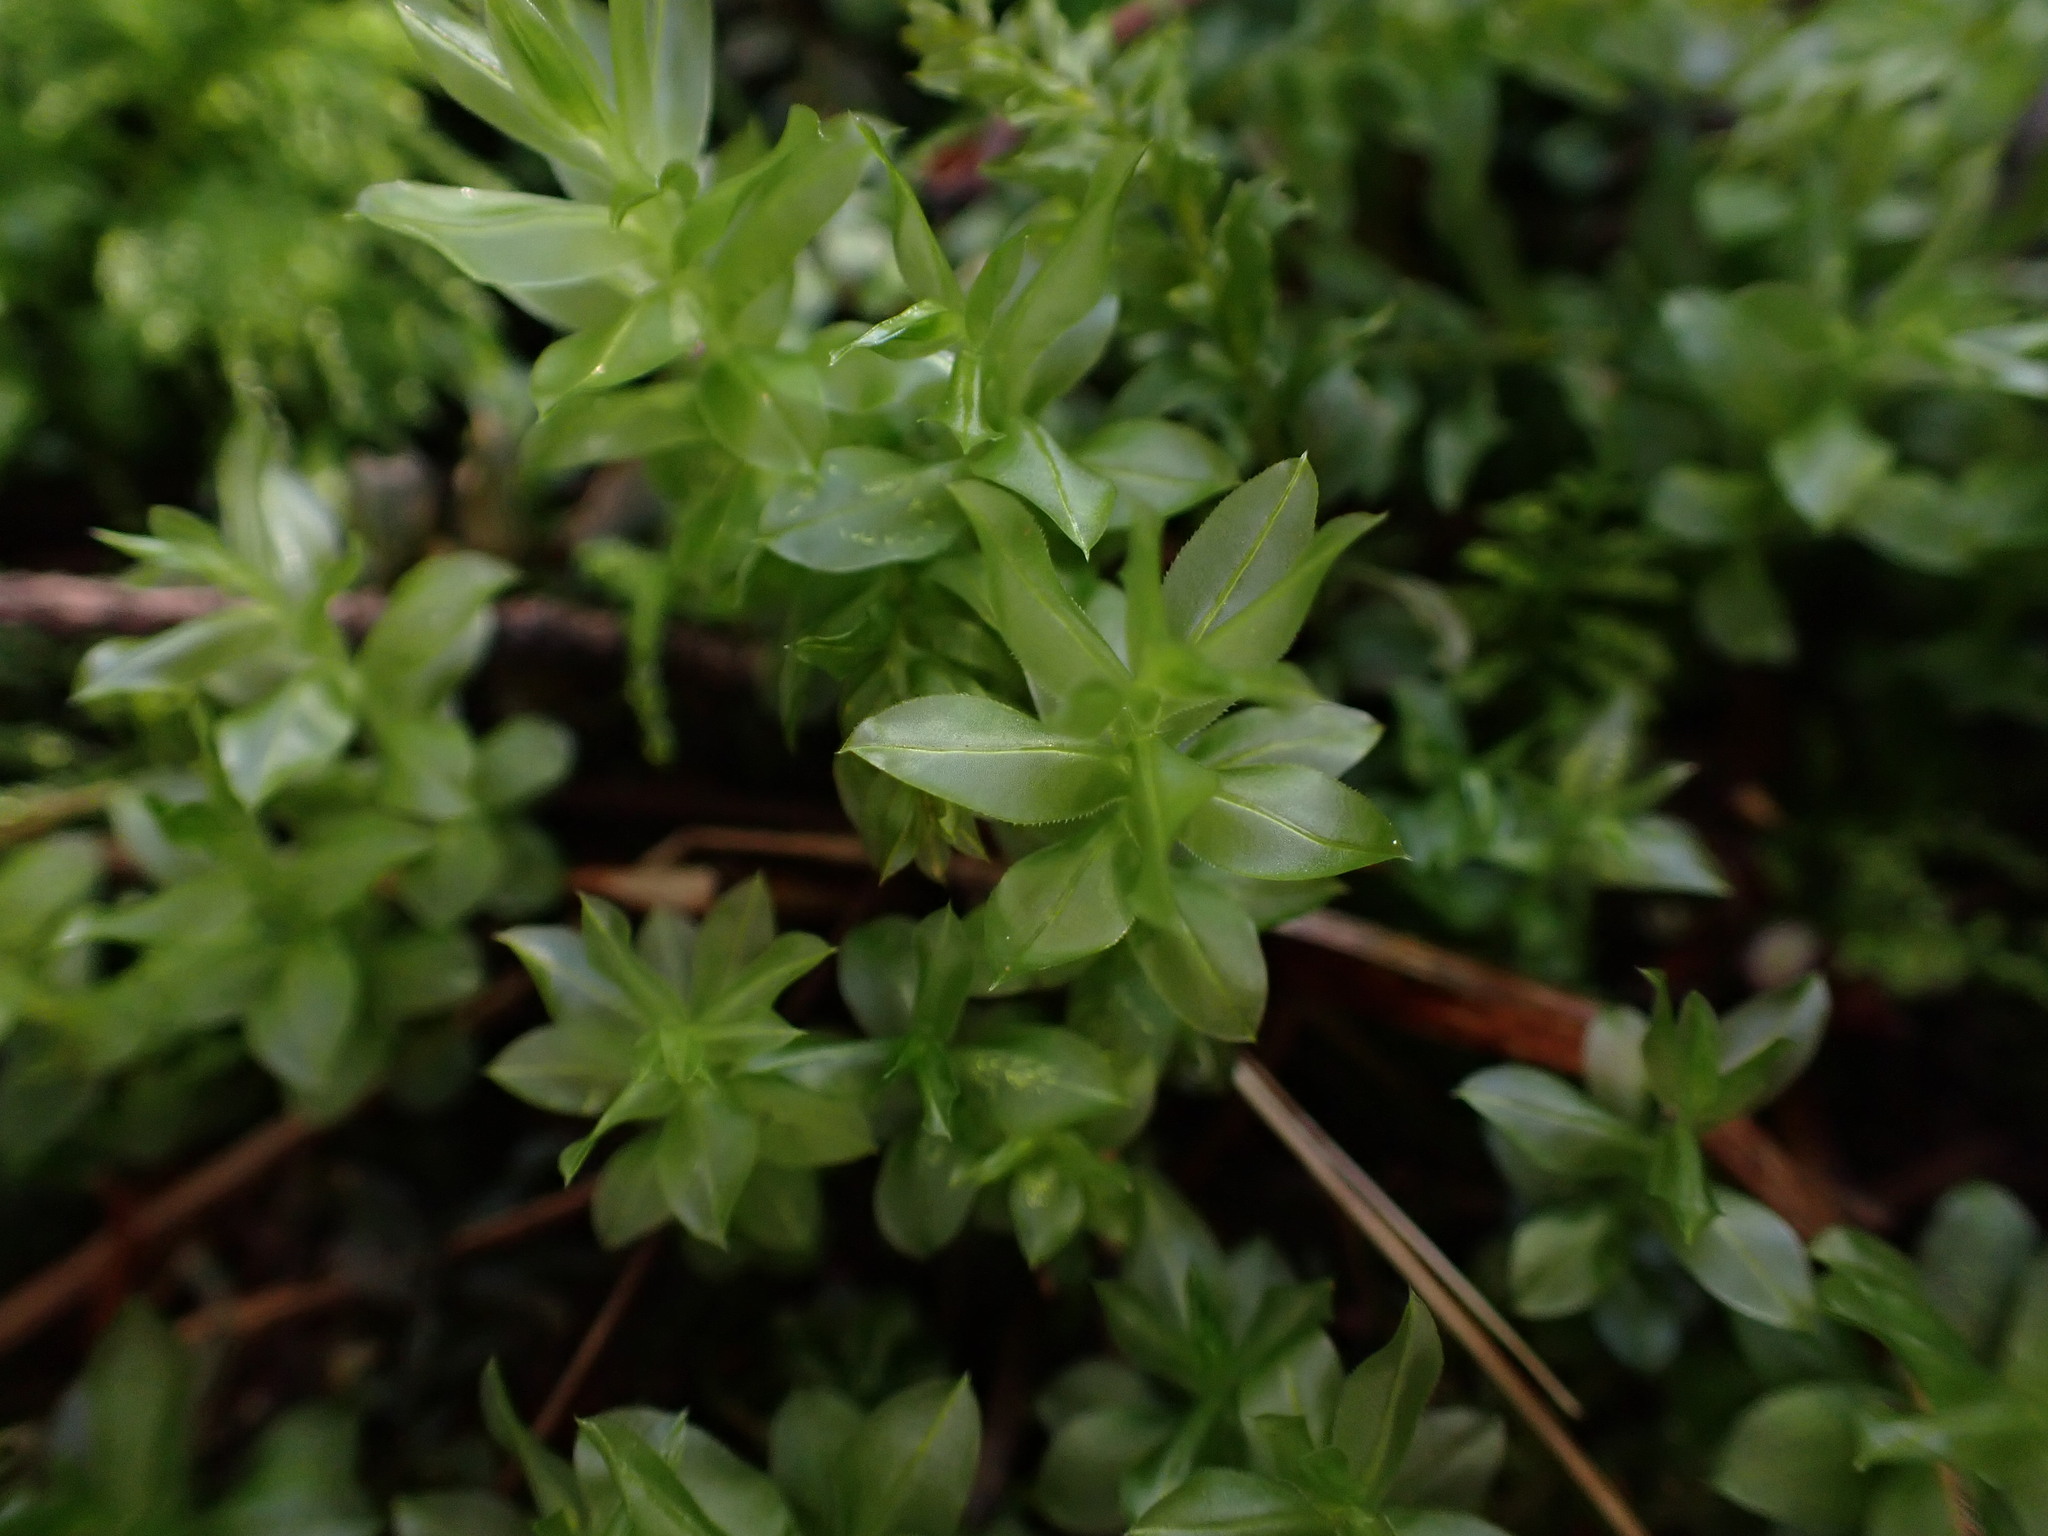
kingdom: Plantae
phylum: Bryophyta
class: Bryopsida
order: Bryales
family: Mniaceae
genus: Plagiomnium
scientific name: Plagiomnium insigne
